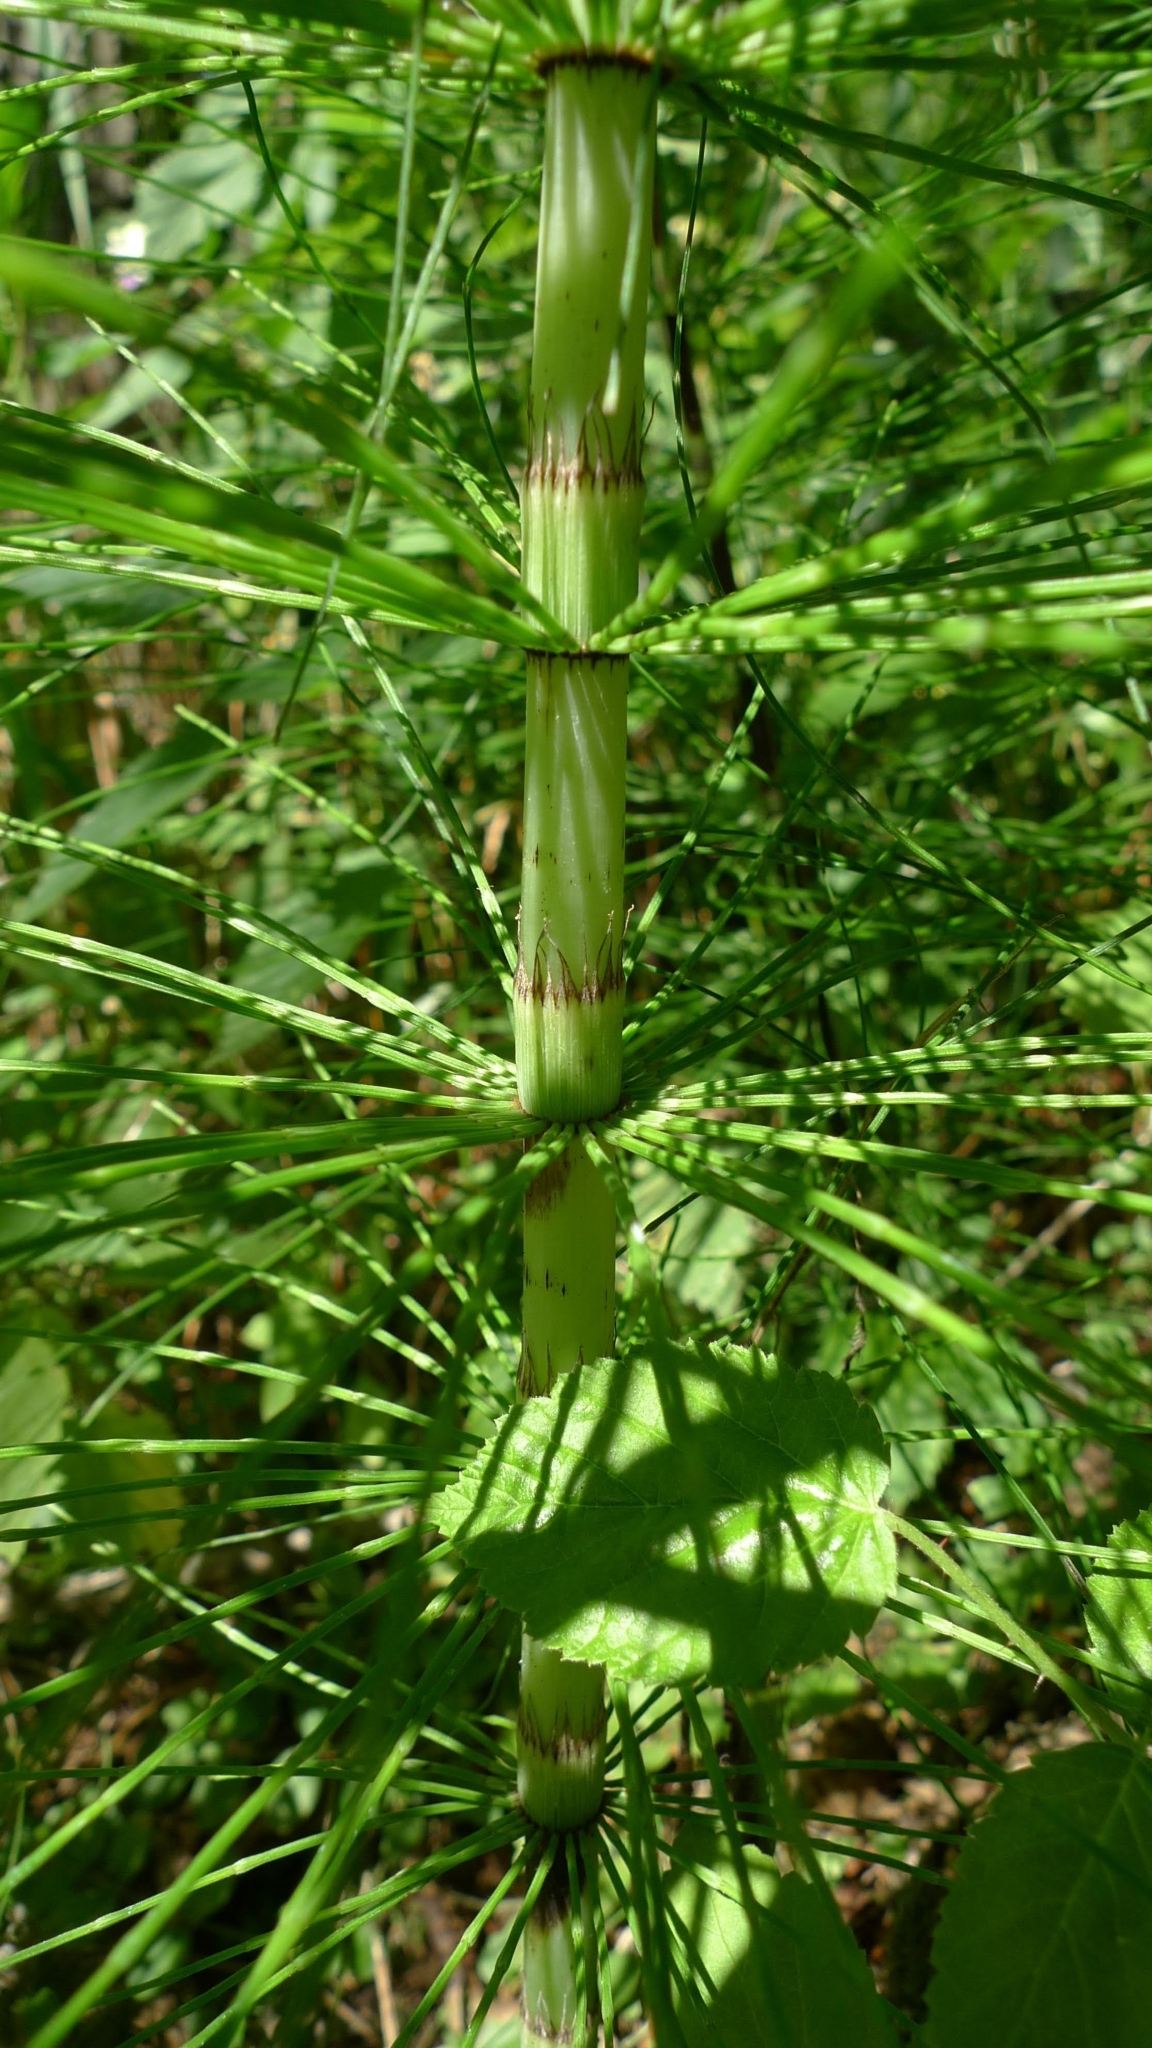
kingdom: Plantae
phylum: Tracheophyta
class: Polypodiopsida
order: Equisetales
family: Equisetaceae
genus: Equisetum
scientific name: Equisetum telmateia
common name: Great horsetail
